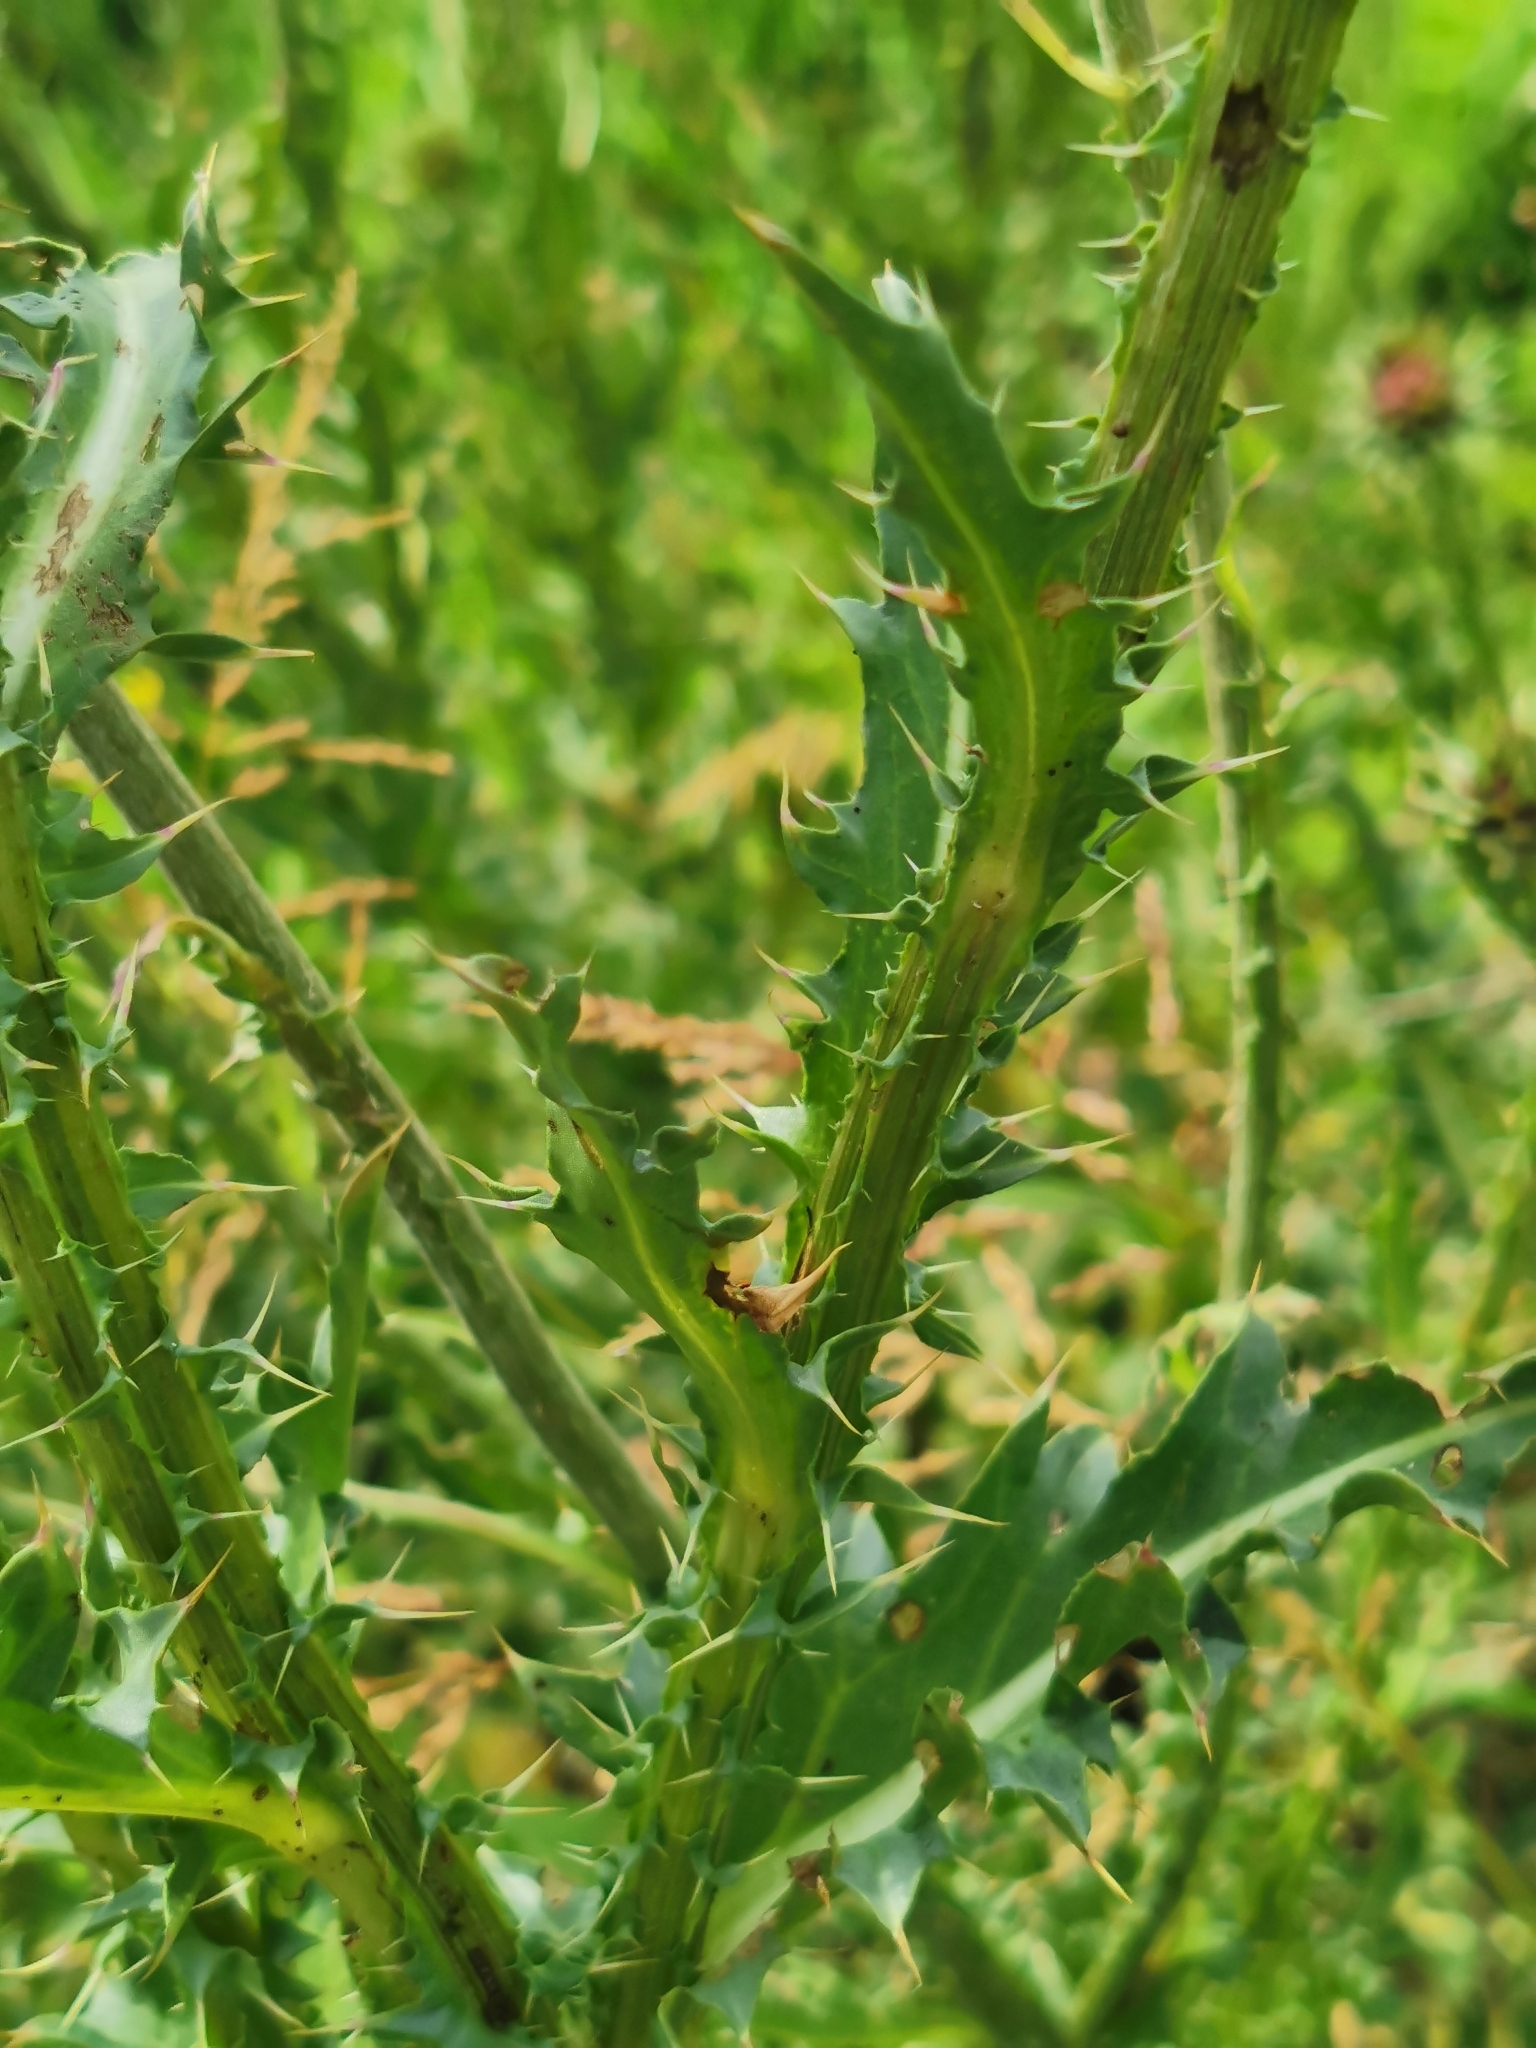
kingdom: Plantae
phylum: Tracheophyta
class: Magnoliopsida
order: Asterales
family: Asteraceae
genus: Carduus
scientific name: Carduus nutans
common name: Musk thistle
